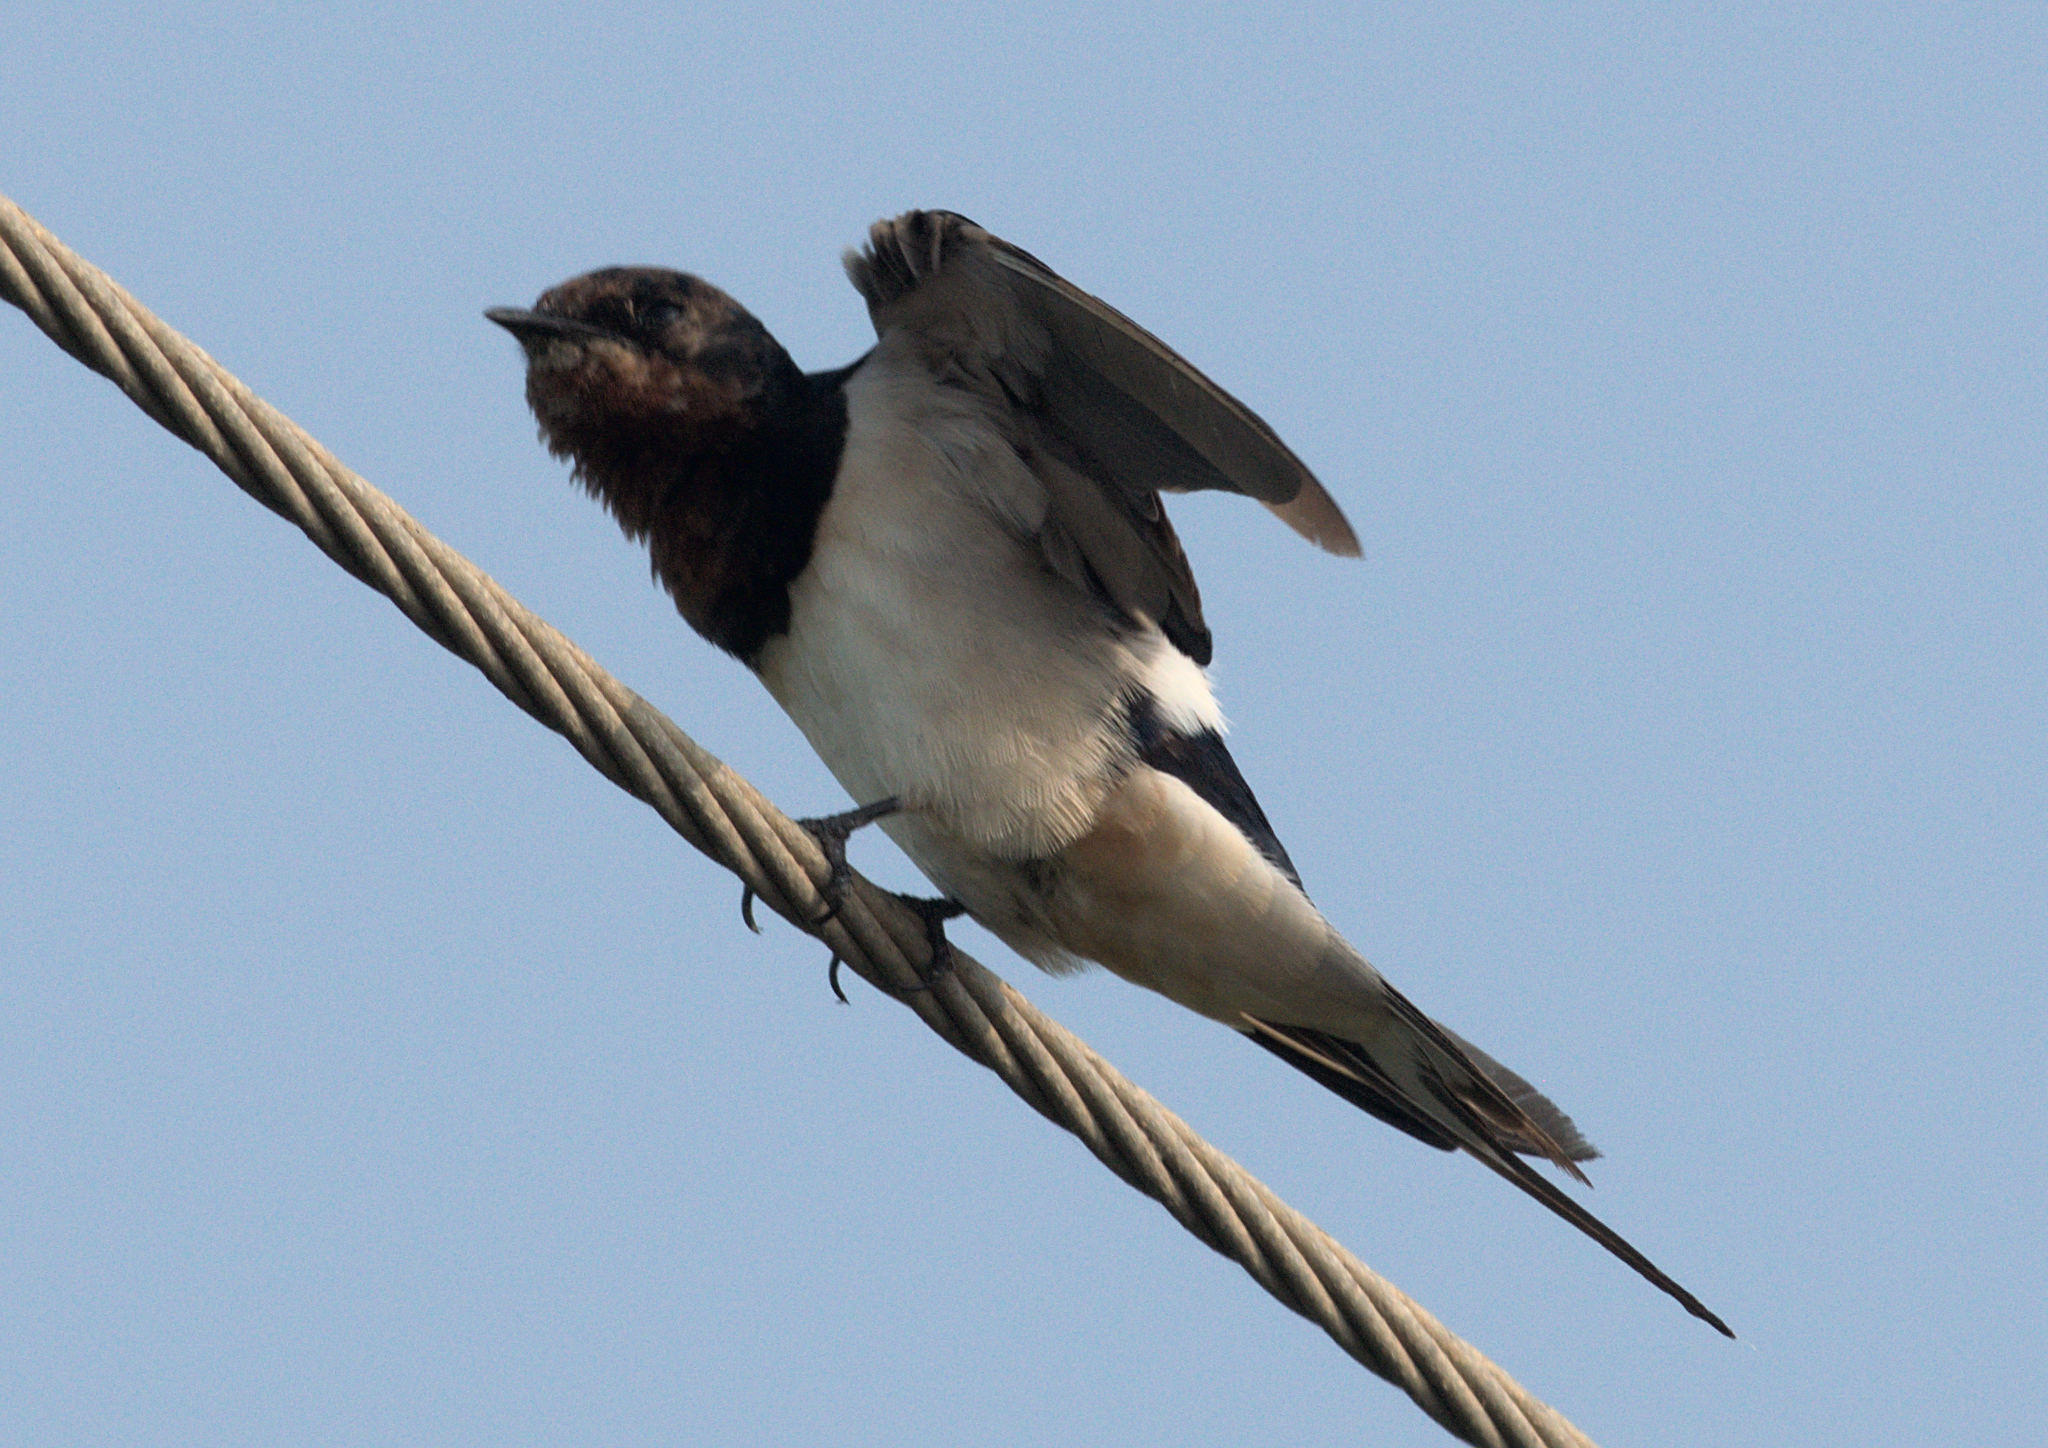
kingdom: Animalia
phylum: Chordata
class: Aves
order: Passeriformes
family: Hirundinidae
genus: Hirundo
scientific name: Hirundo rustica
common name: Barn swallow
